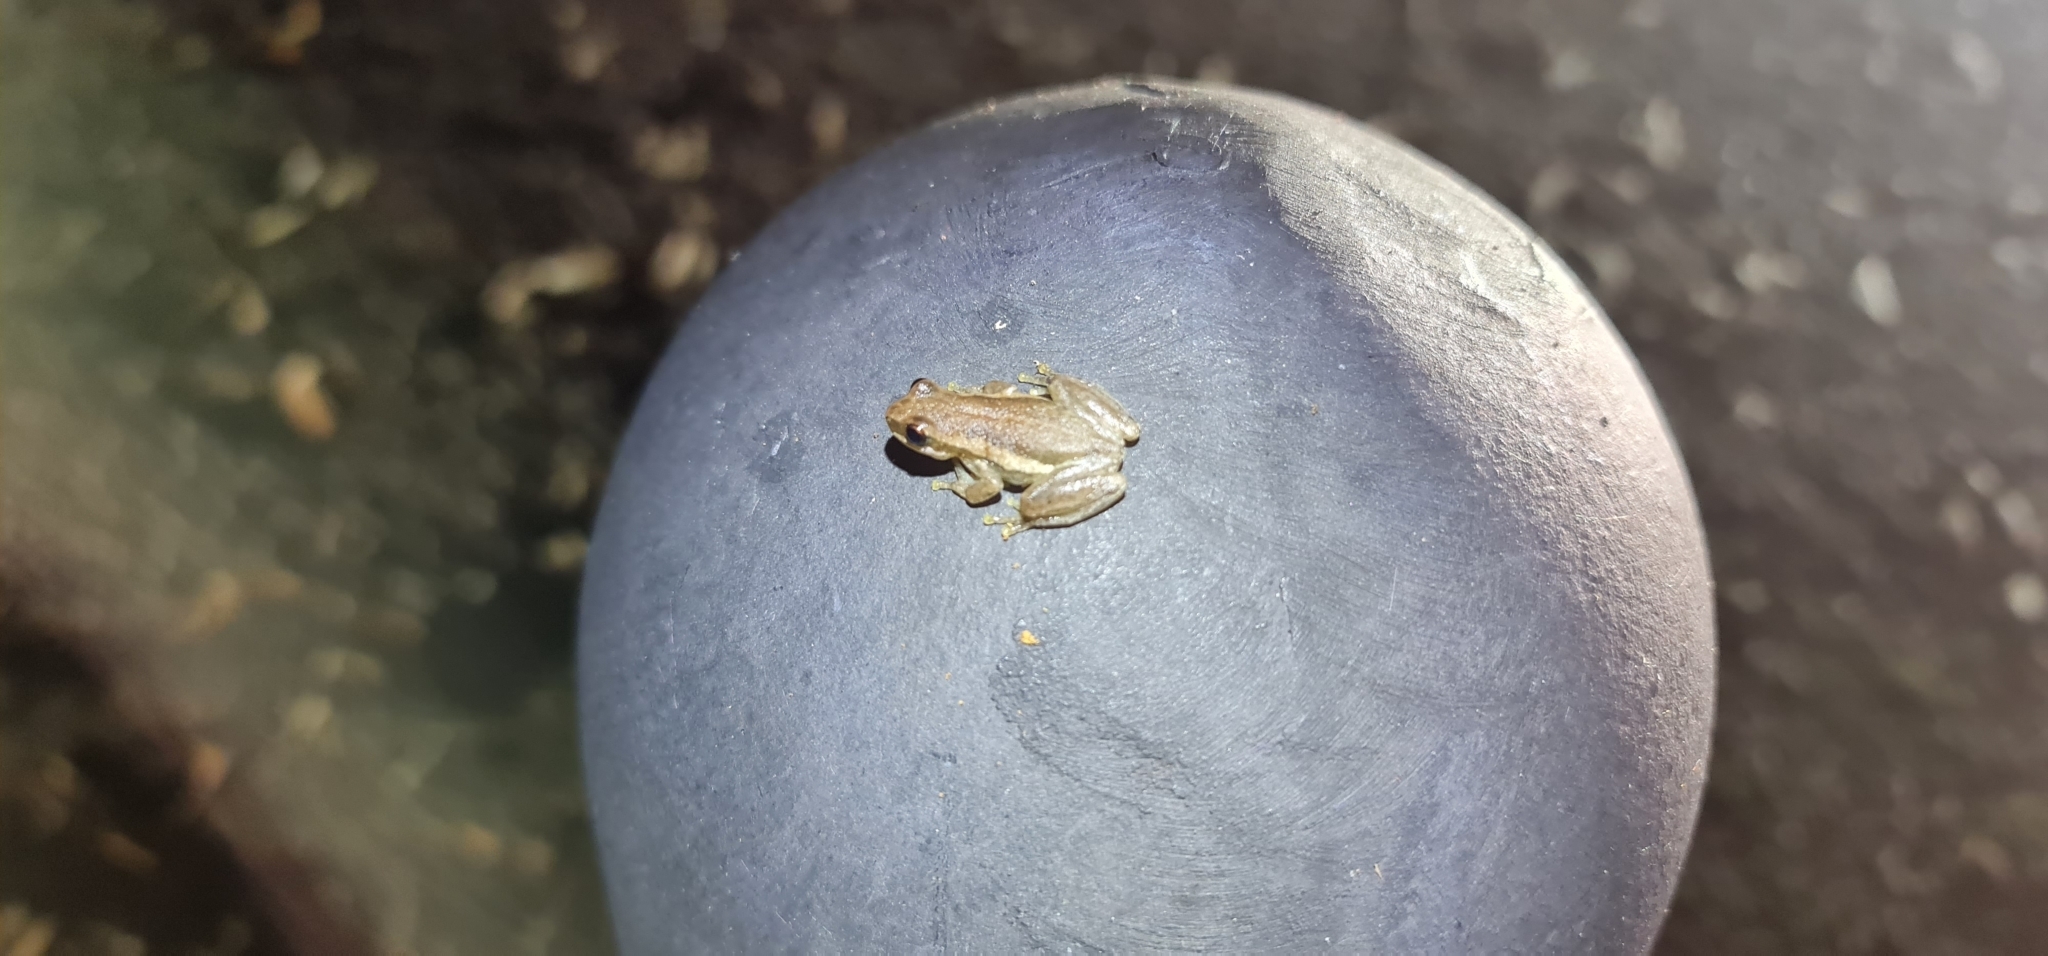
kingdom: Animalia
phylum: Chordata
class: Amphibia
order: Anura
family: Pelodryadidae
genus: Litoria
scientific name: Litoria rubella
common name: Desert tree frog
